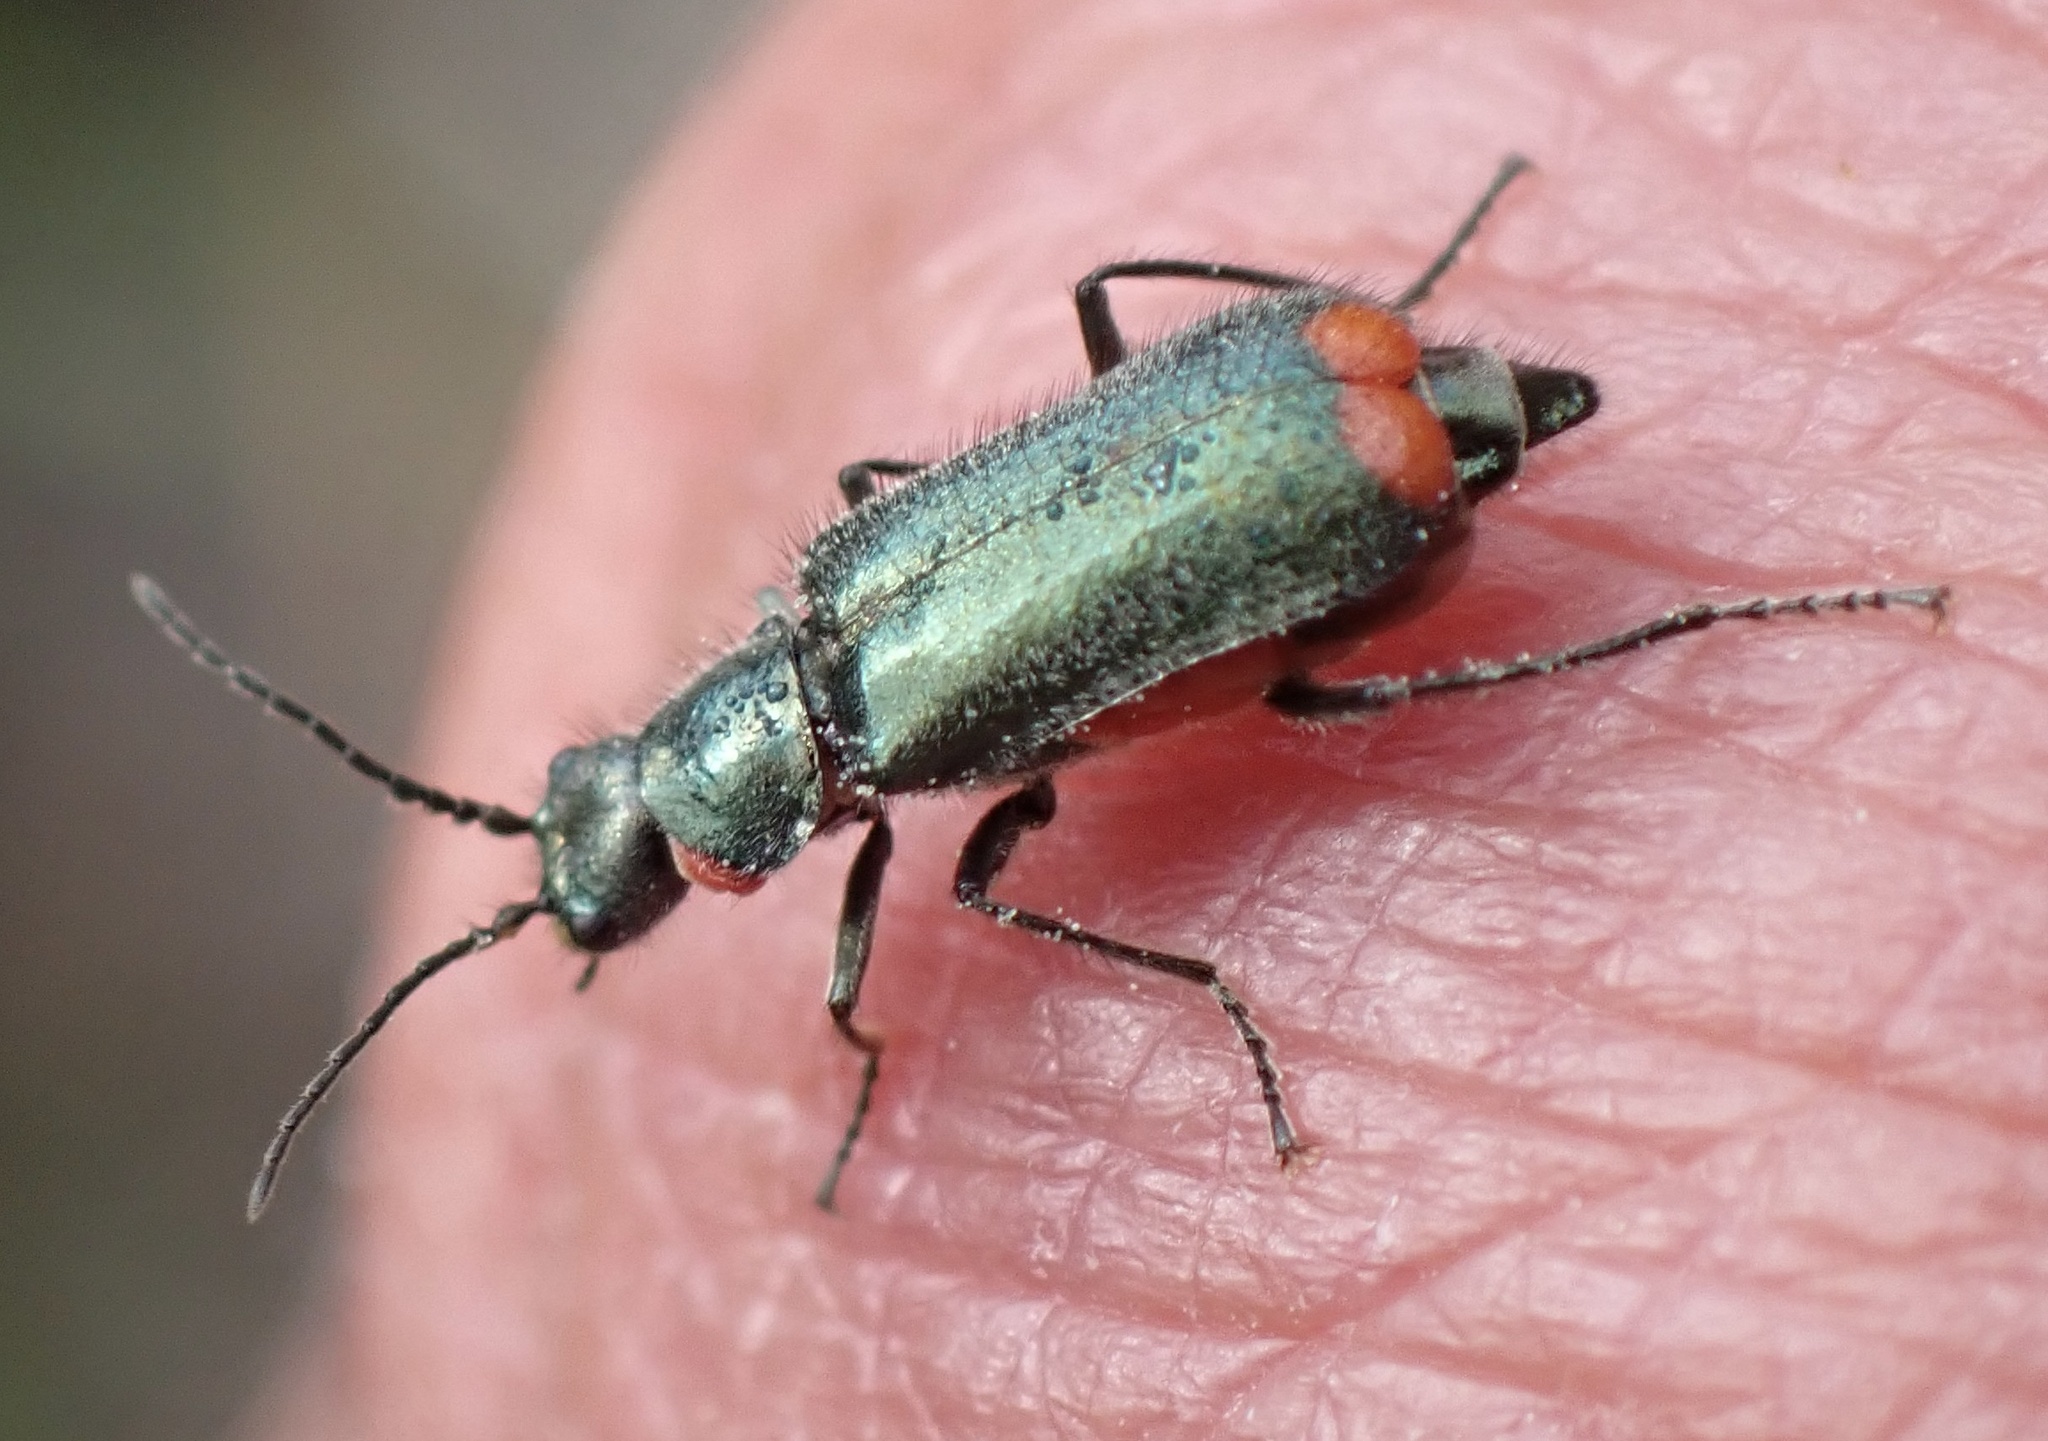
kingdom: Animalia
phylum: Arthropoda
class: Insecta
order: Coleoptera
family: Melyridae
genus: Malachius
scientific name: Malachius bipustulatus
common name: Malachite beetle
